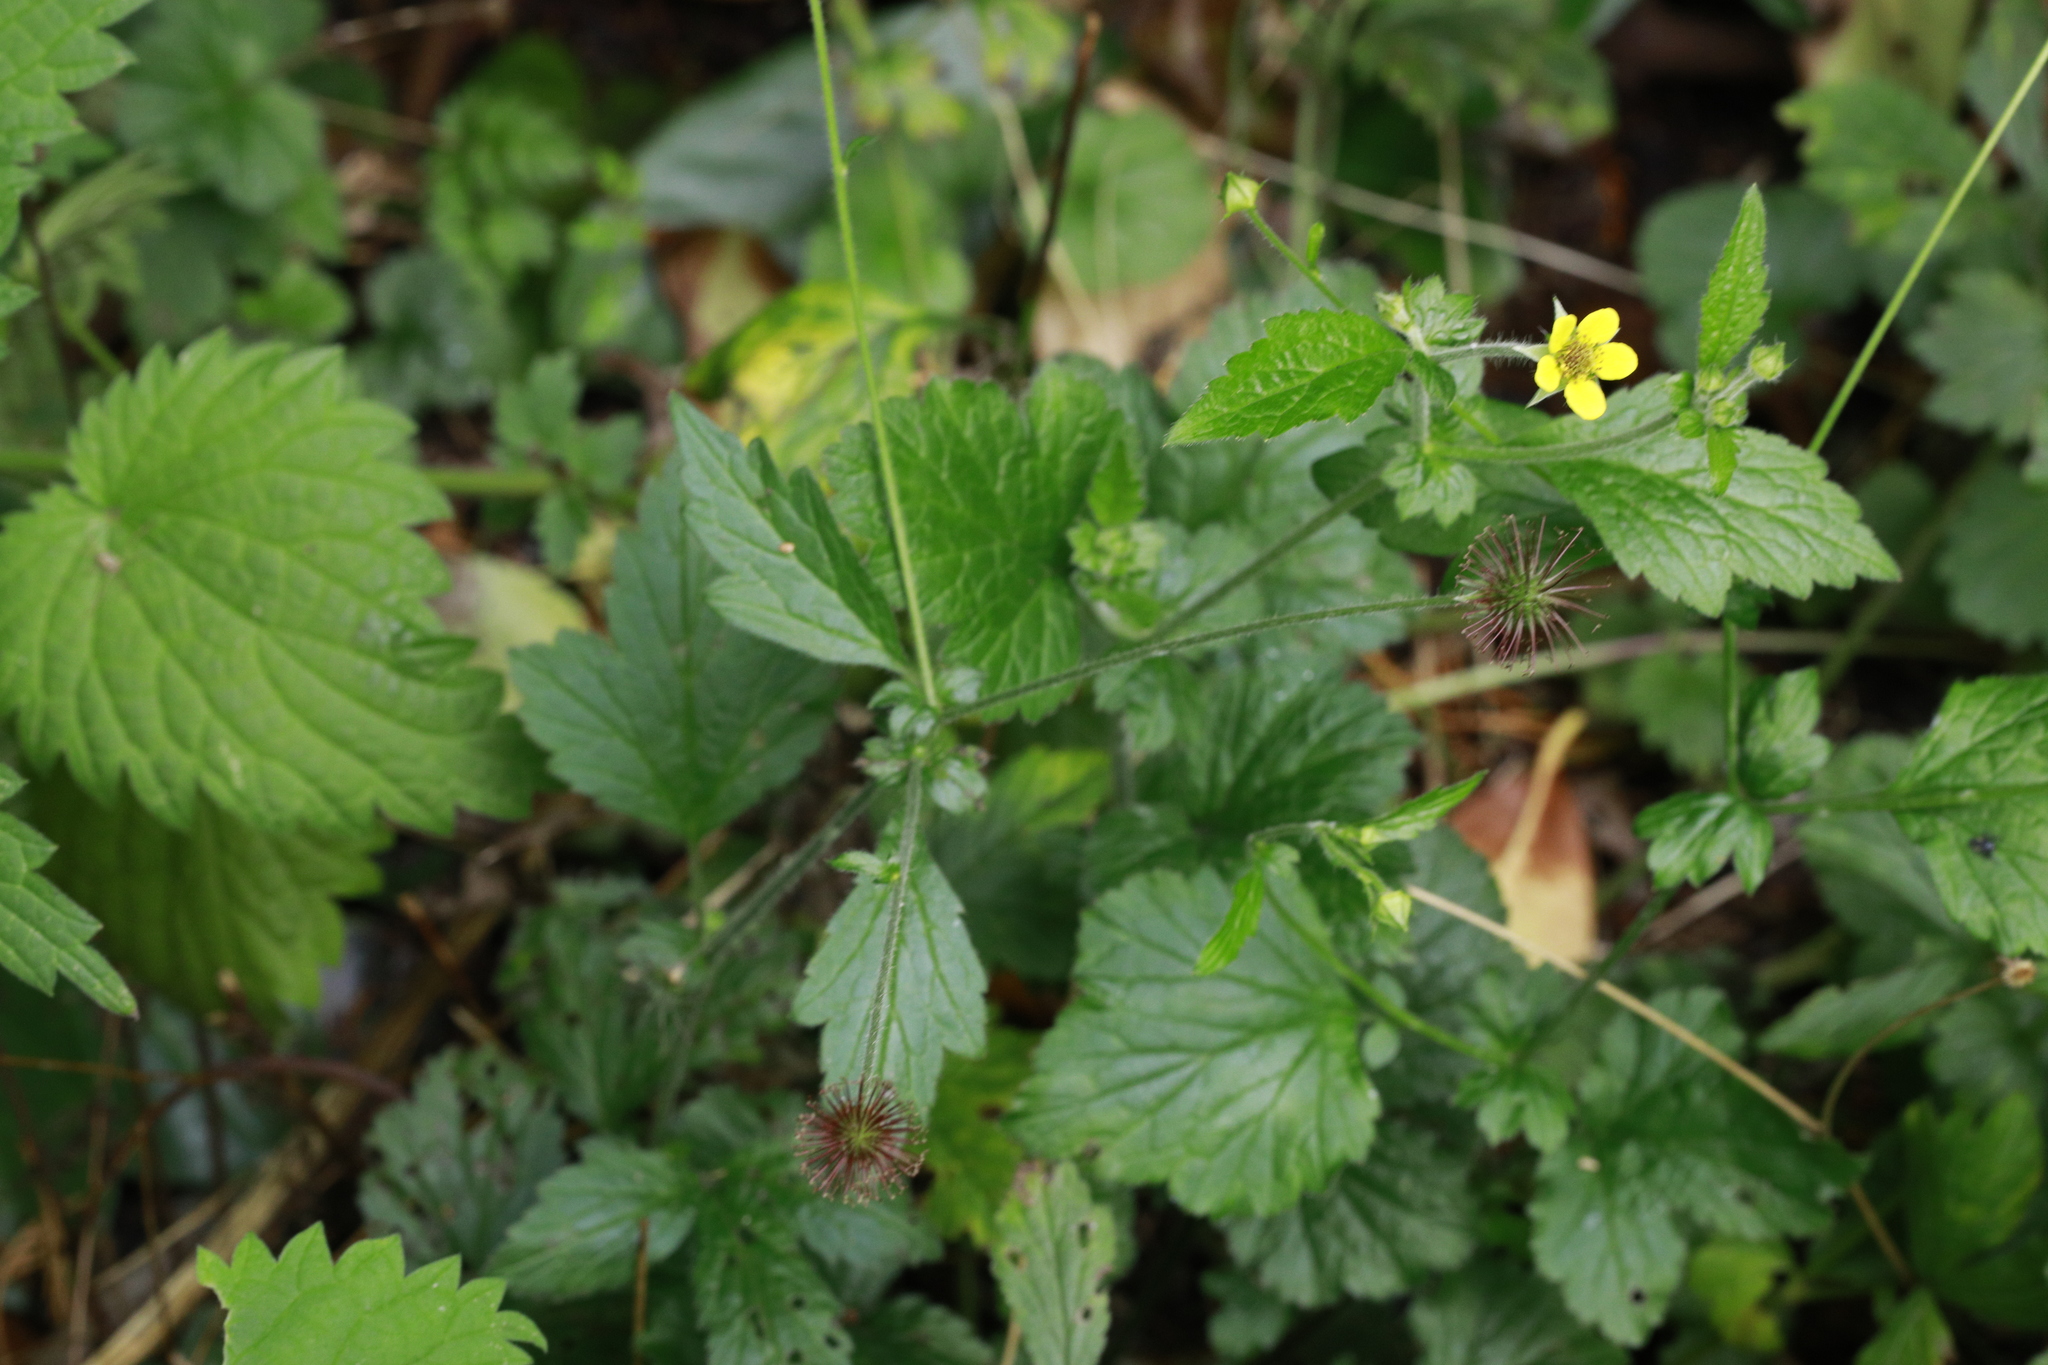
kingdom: Plantae
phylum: Tracheophyta
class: Magnoliopsida
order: Rosales
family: Rosaceae
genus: Geum
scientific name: Geum urbanum
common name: Wood avens
